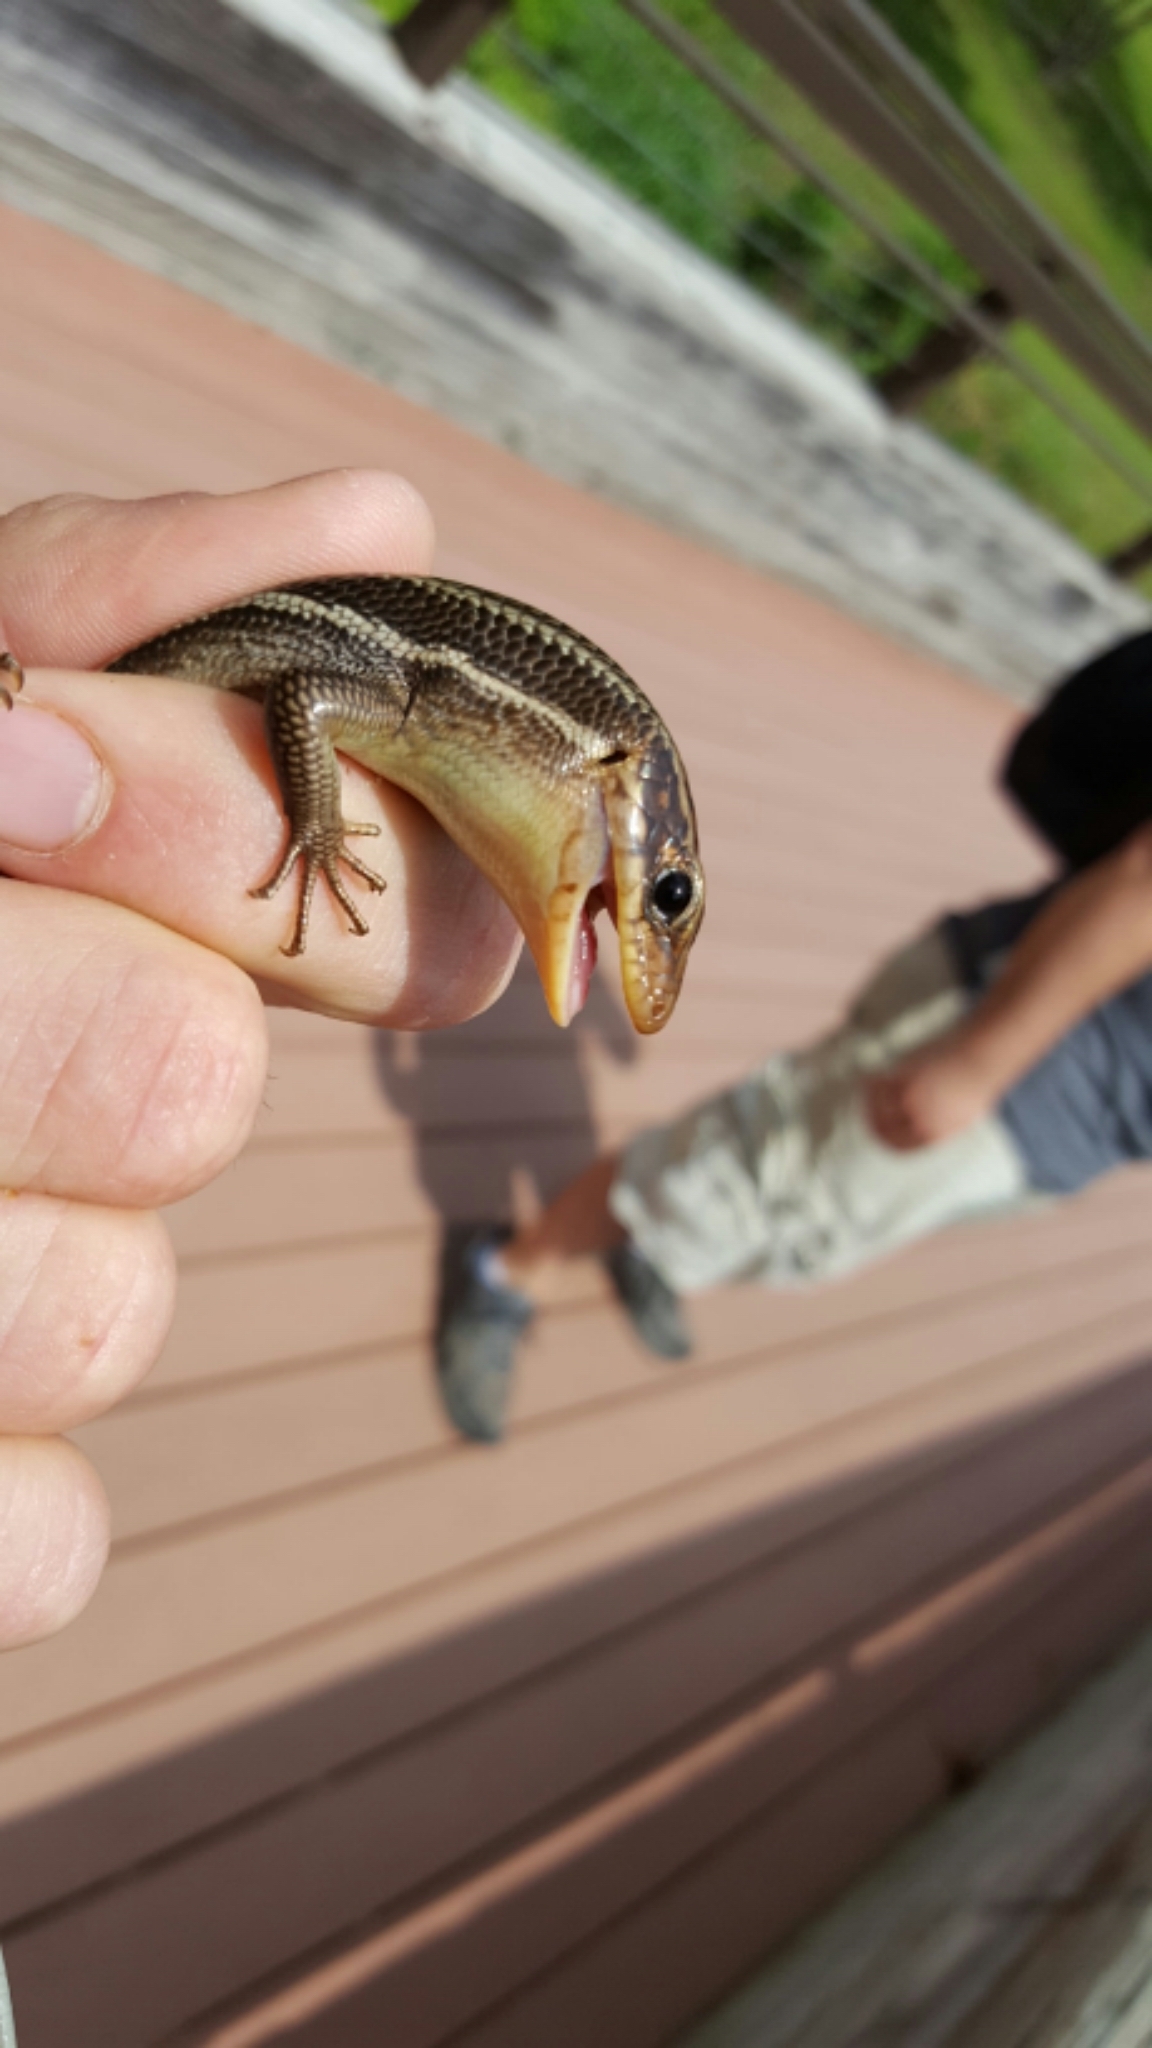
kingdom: Animalia
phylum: Chordata
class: Squamata
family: Scincidae
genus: Plestiodon
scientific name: Plestiodon laticeps
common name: Broadhead skink
